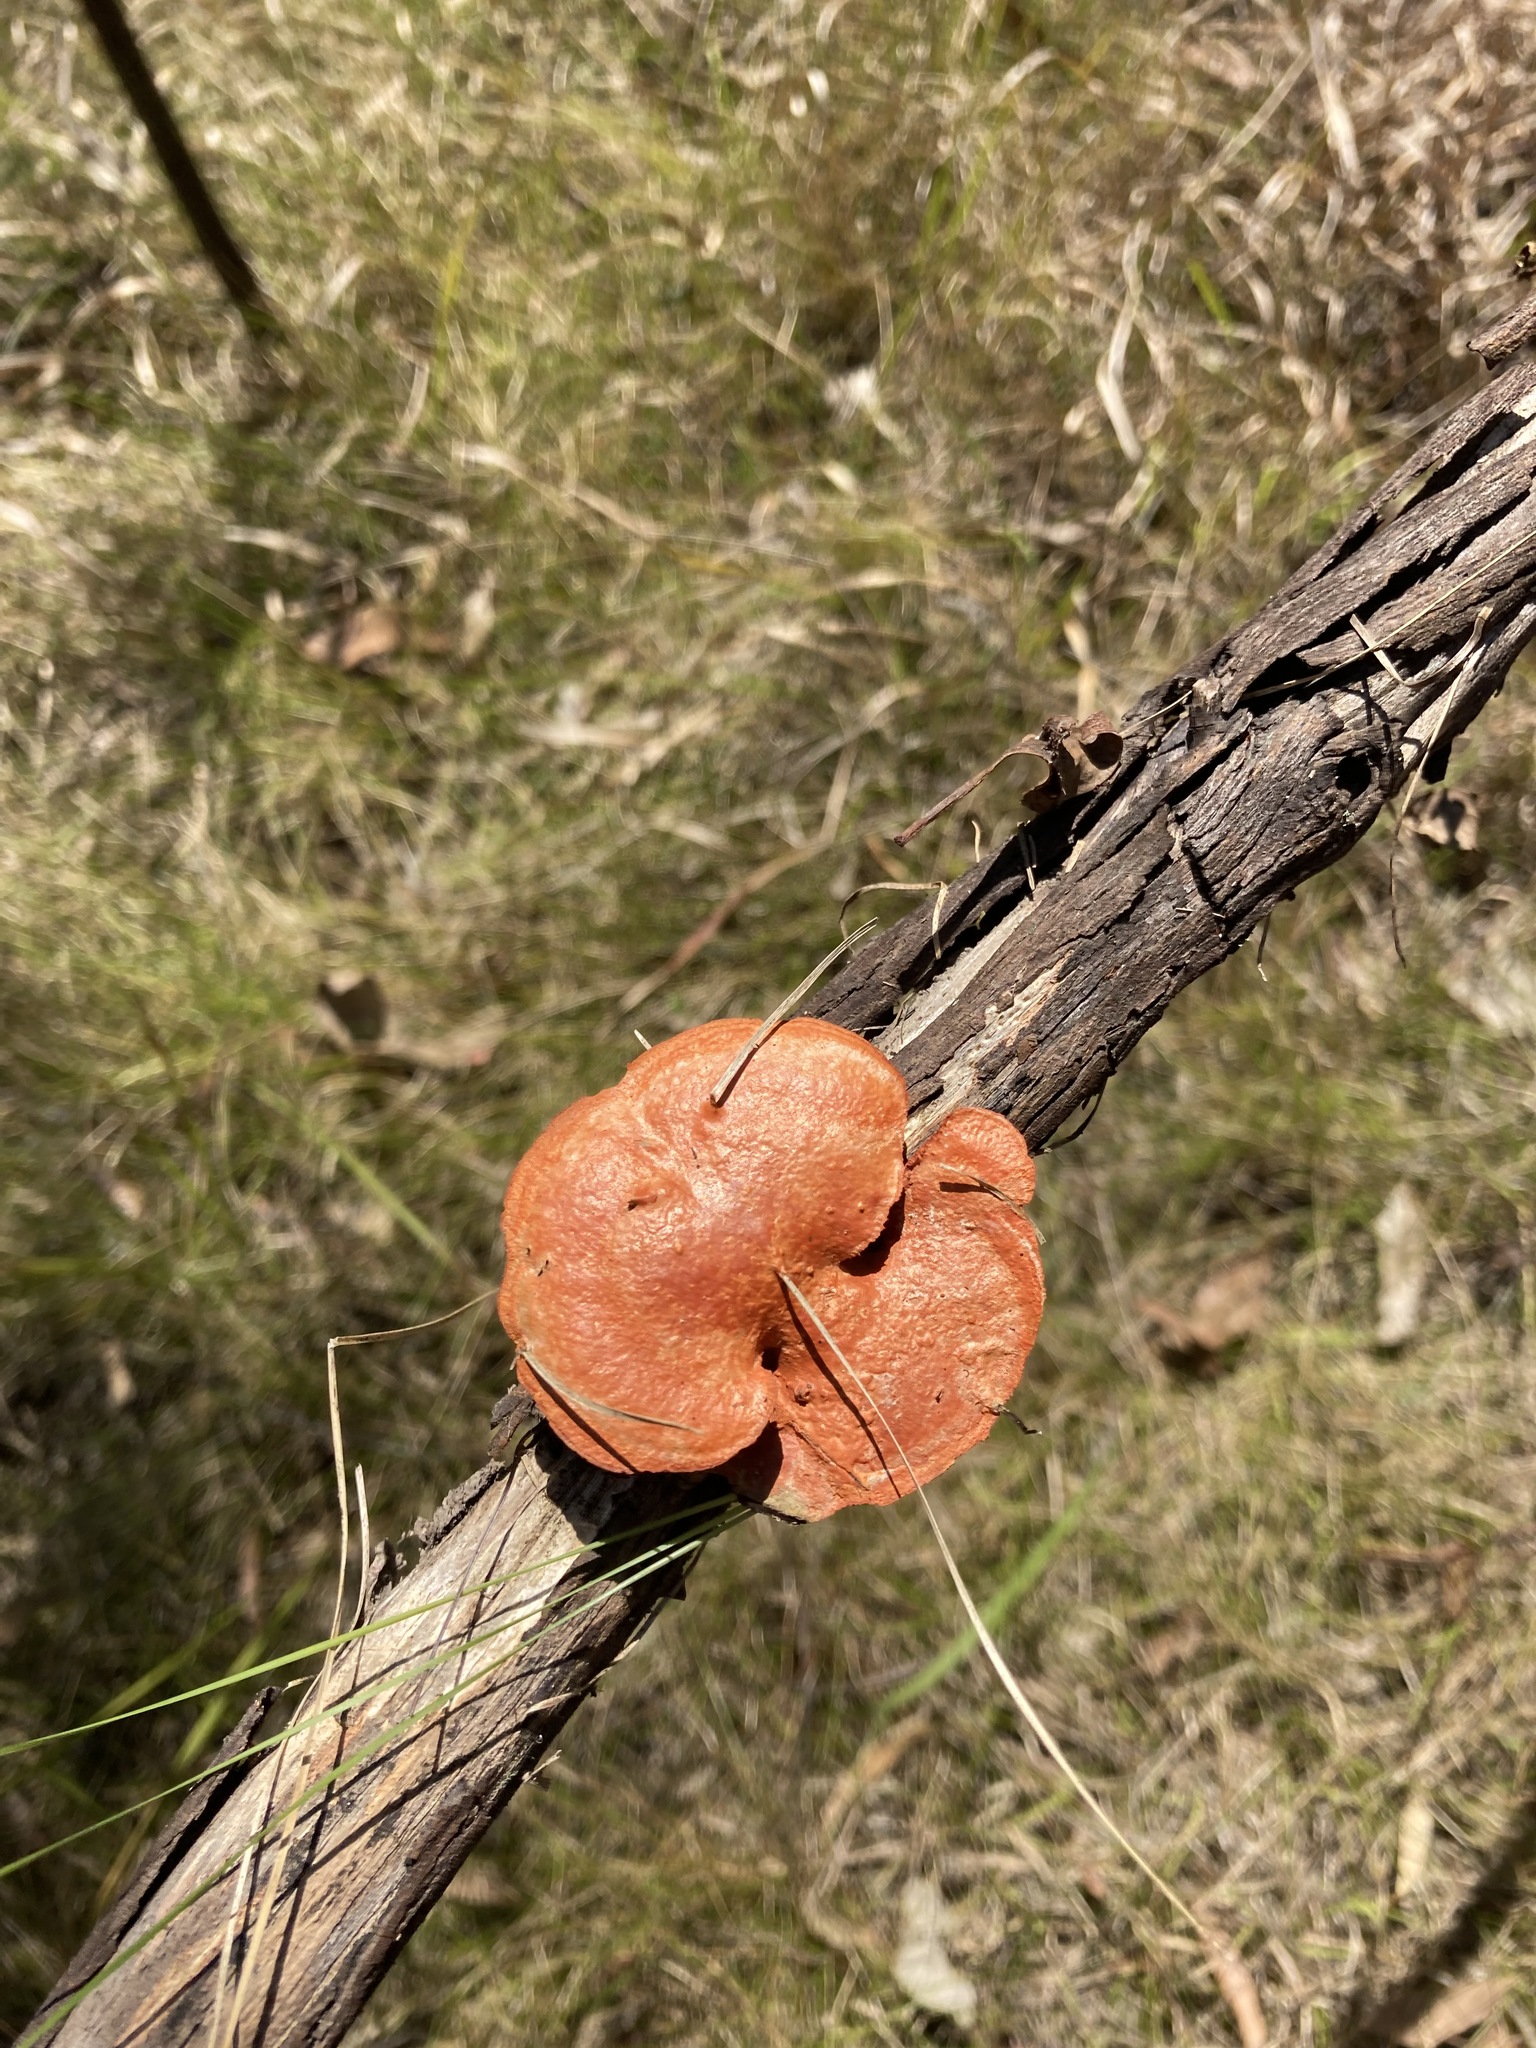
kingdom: Fungi
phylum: Basidiomycota
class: Agaricomycetes
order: Polyporales
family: Polyporaceae
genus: Trametes
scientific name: Trametes coccinea
